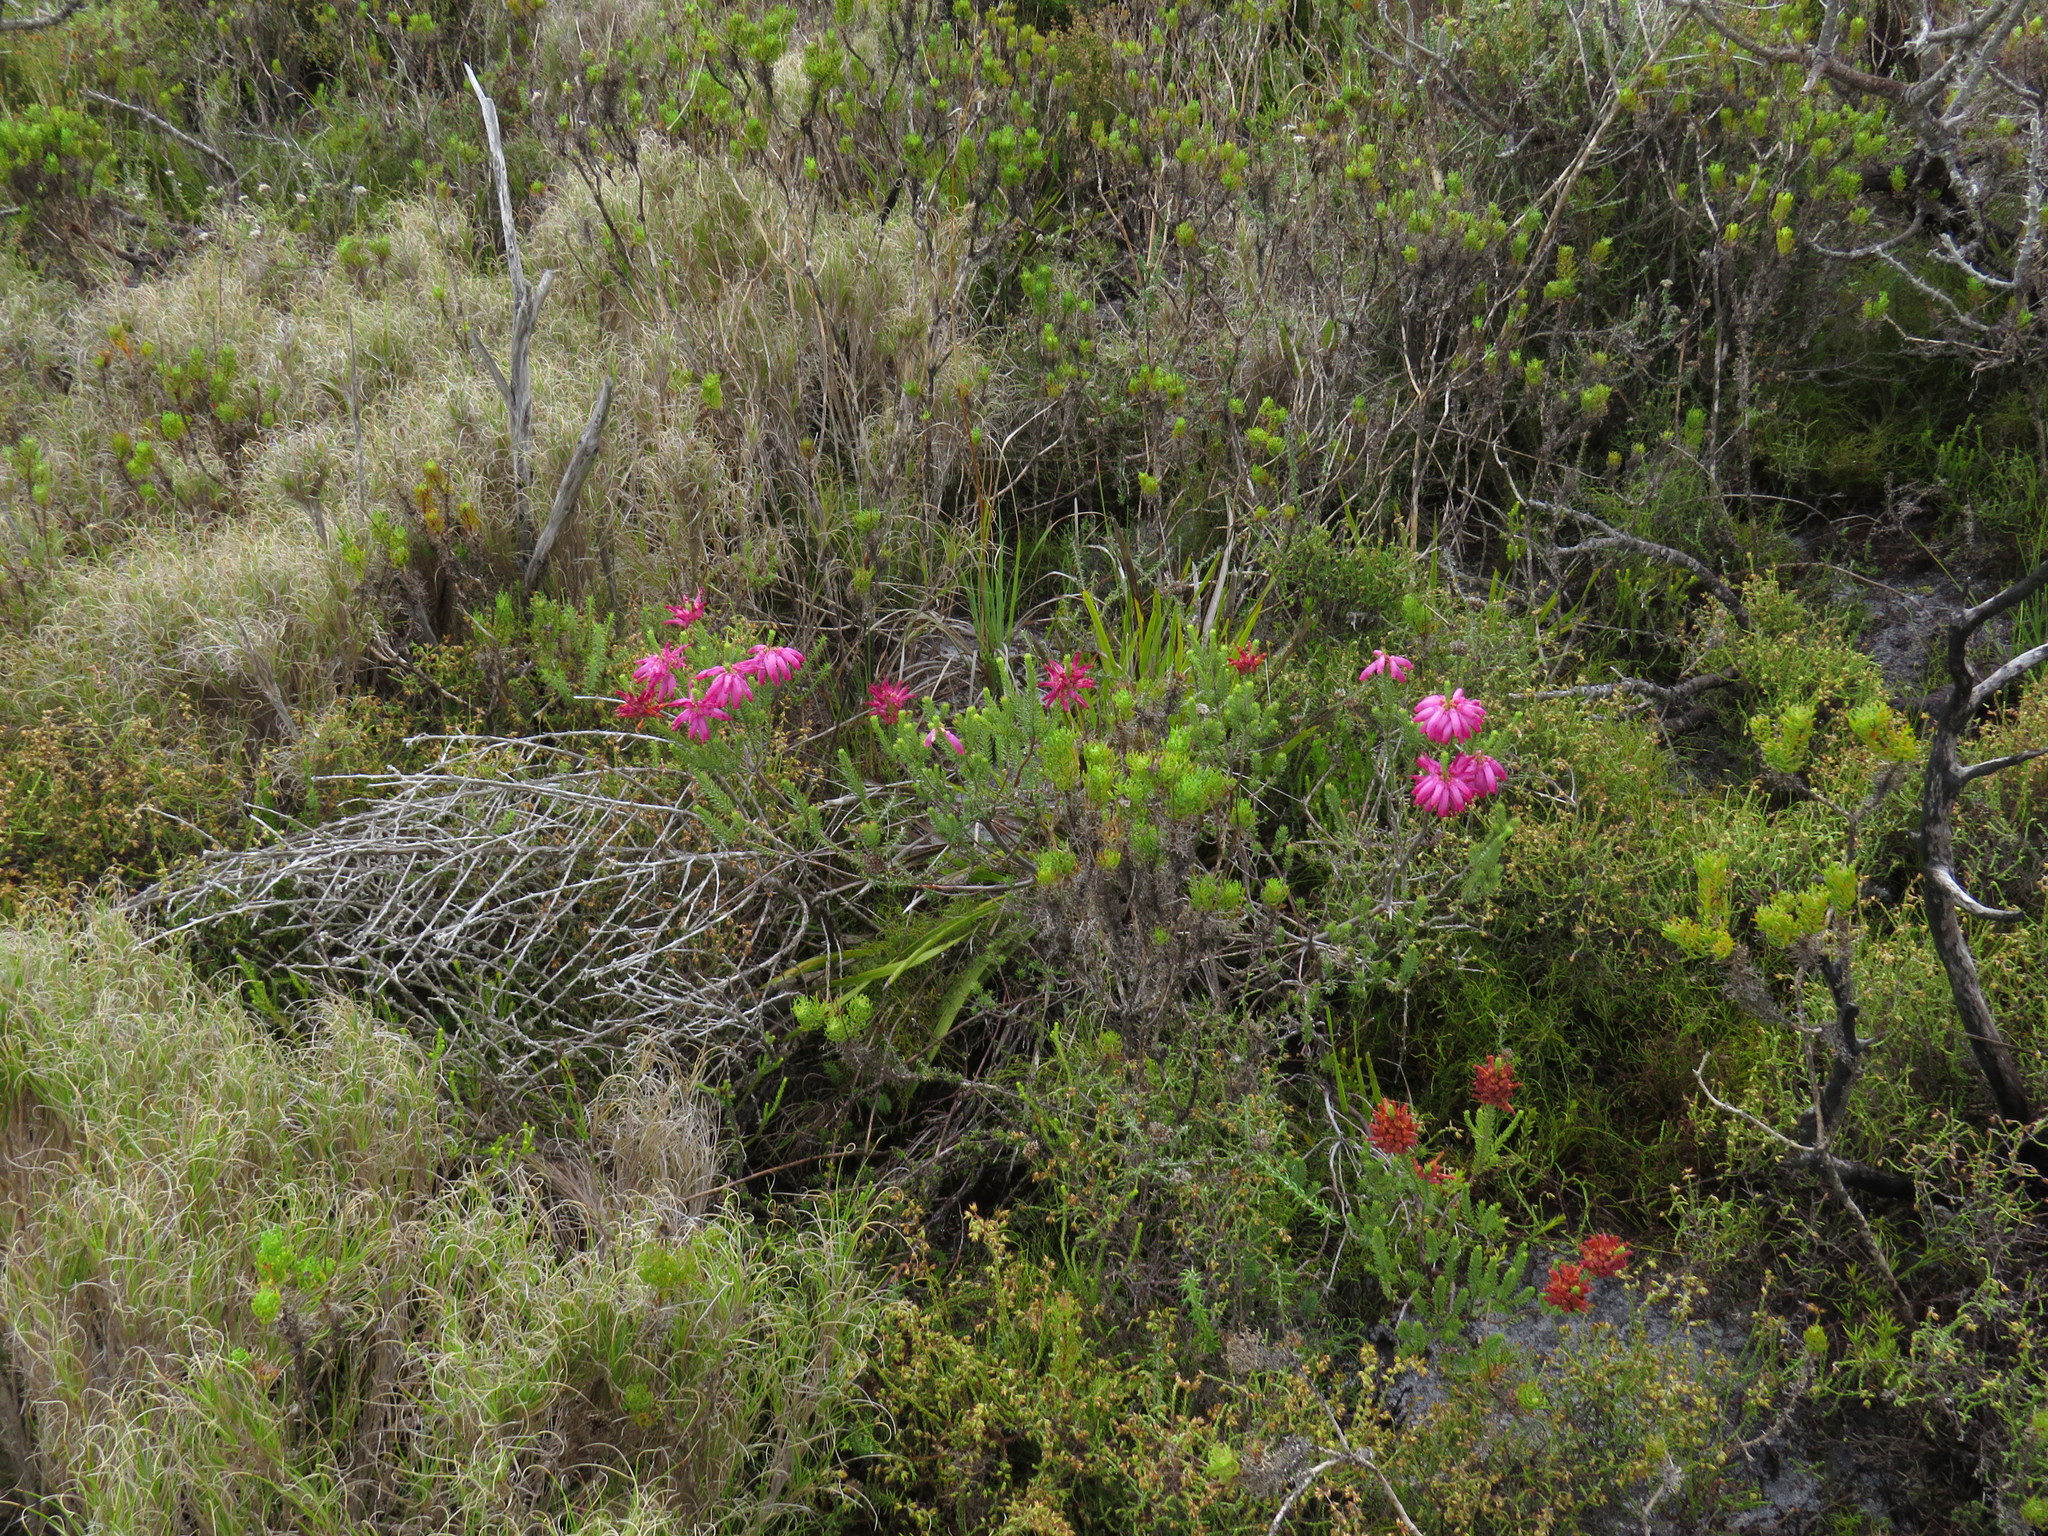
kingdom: Plantae
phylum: Tracheophyta
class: Magnoliopsida
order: Ericales
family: Ericaceae
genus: Erica
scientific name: Erica mammosa
